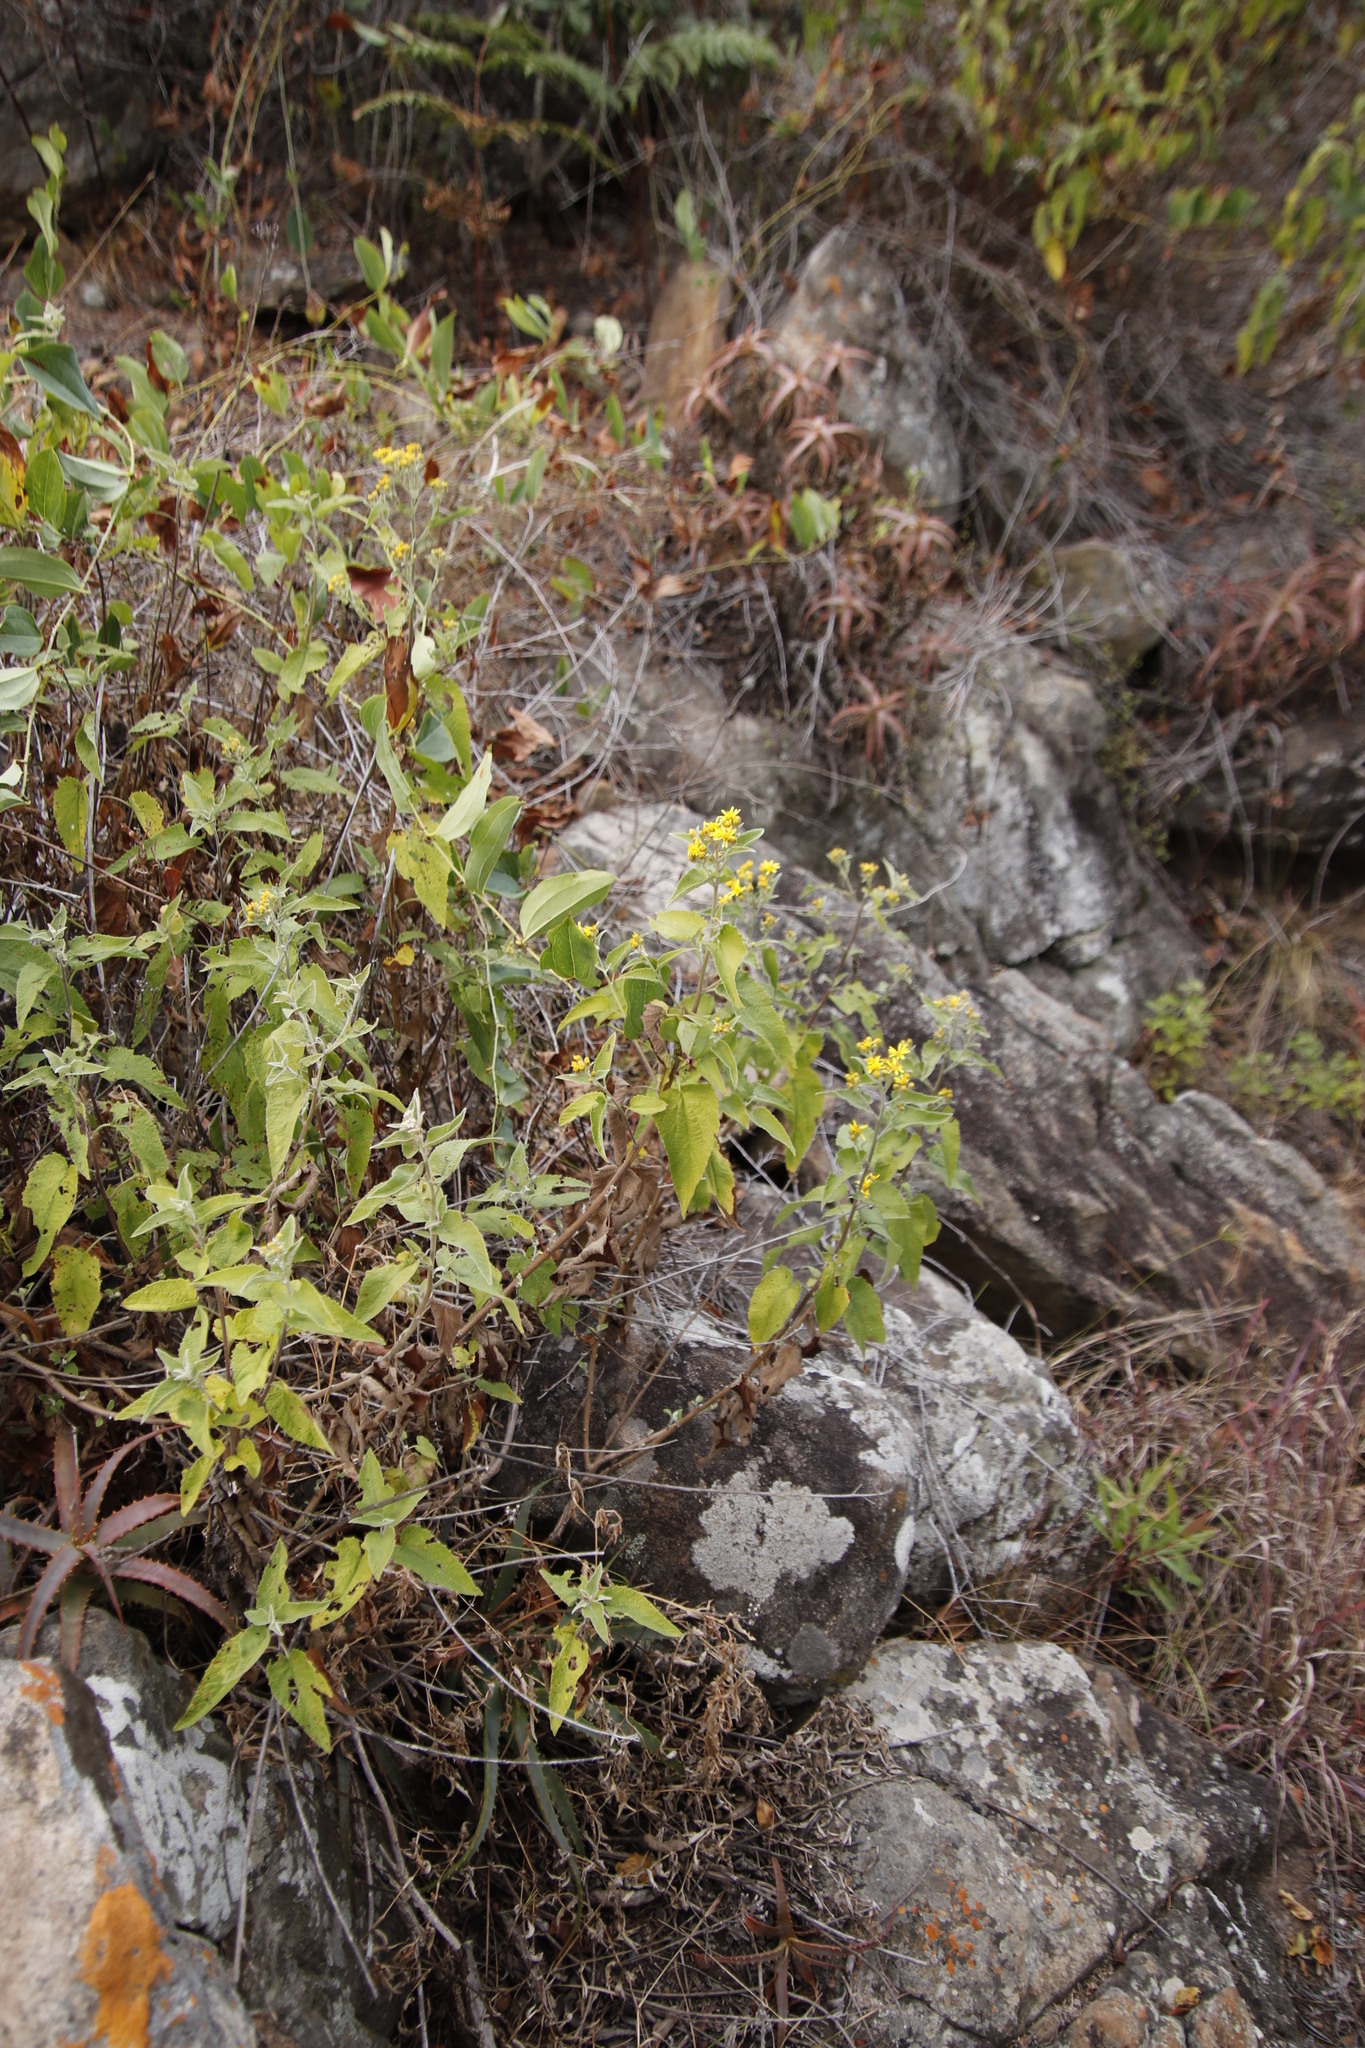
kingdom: Plantae
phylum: Tracheophyta
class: Magnoliopsida
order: Asterales
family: Asteraceae
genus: Anisopappus
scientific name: Anisopappus junodii
